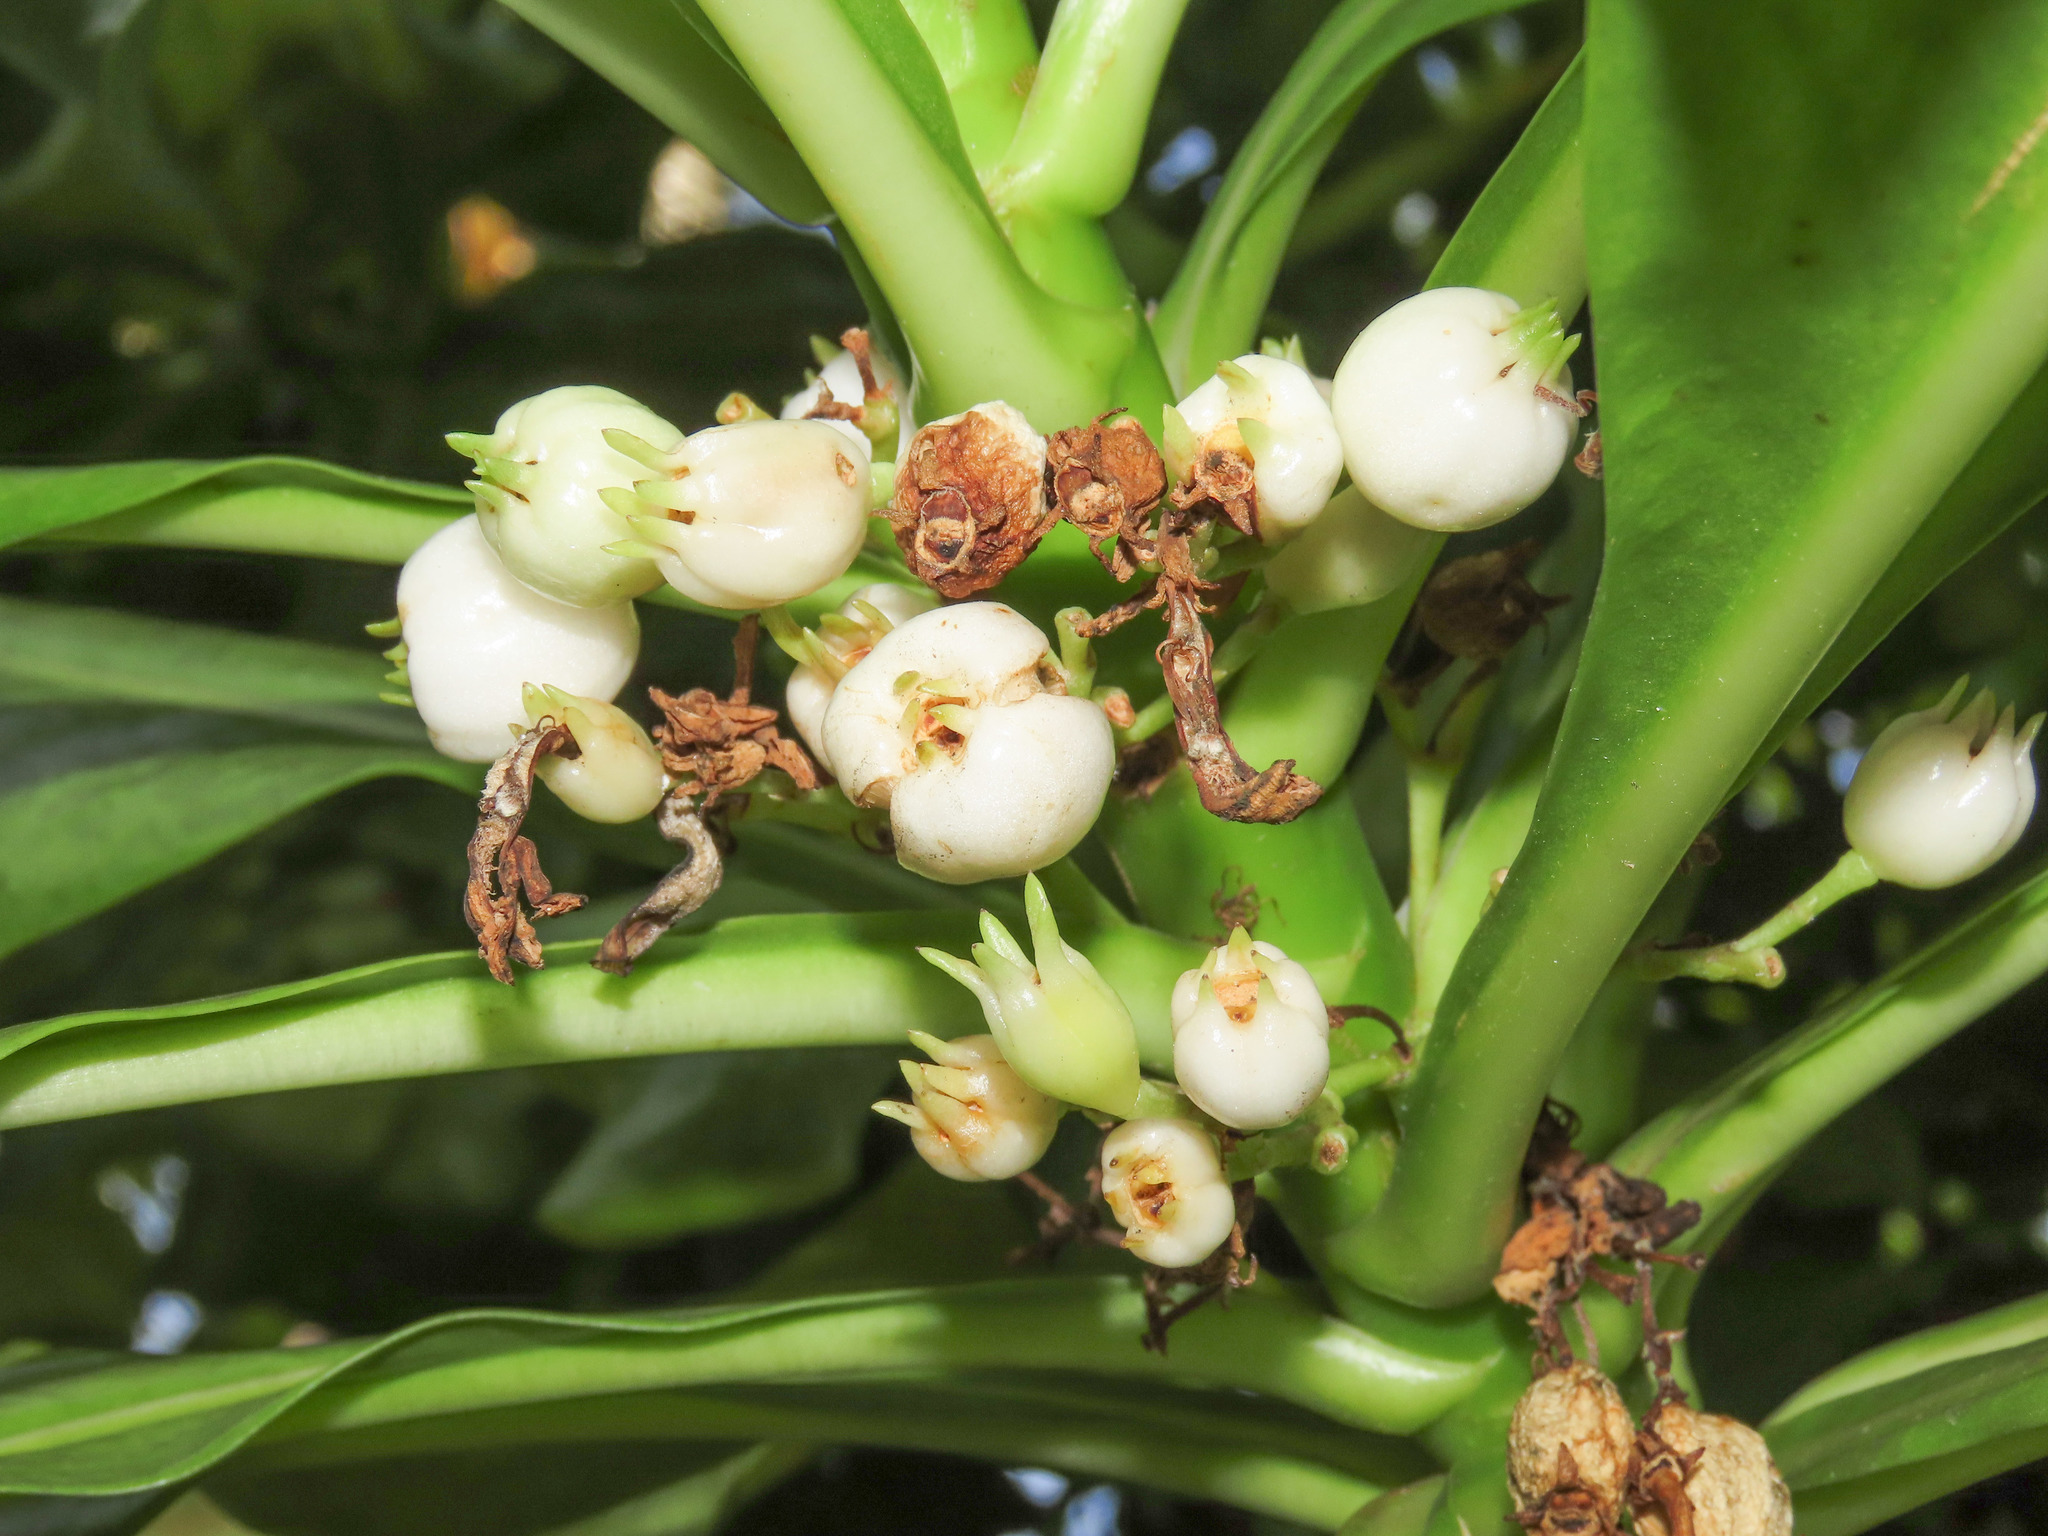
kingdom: Plantae
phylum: Tracheophyta
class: Magnoliopsida
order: Asterales
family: Goodeniaceae
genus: Scaevola
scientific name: Scaevola taccada
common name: Sea lettucetree
